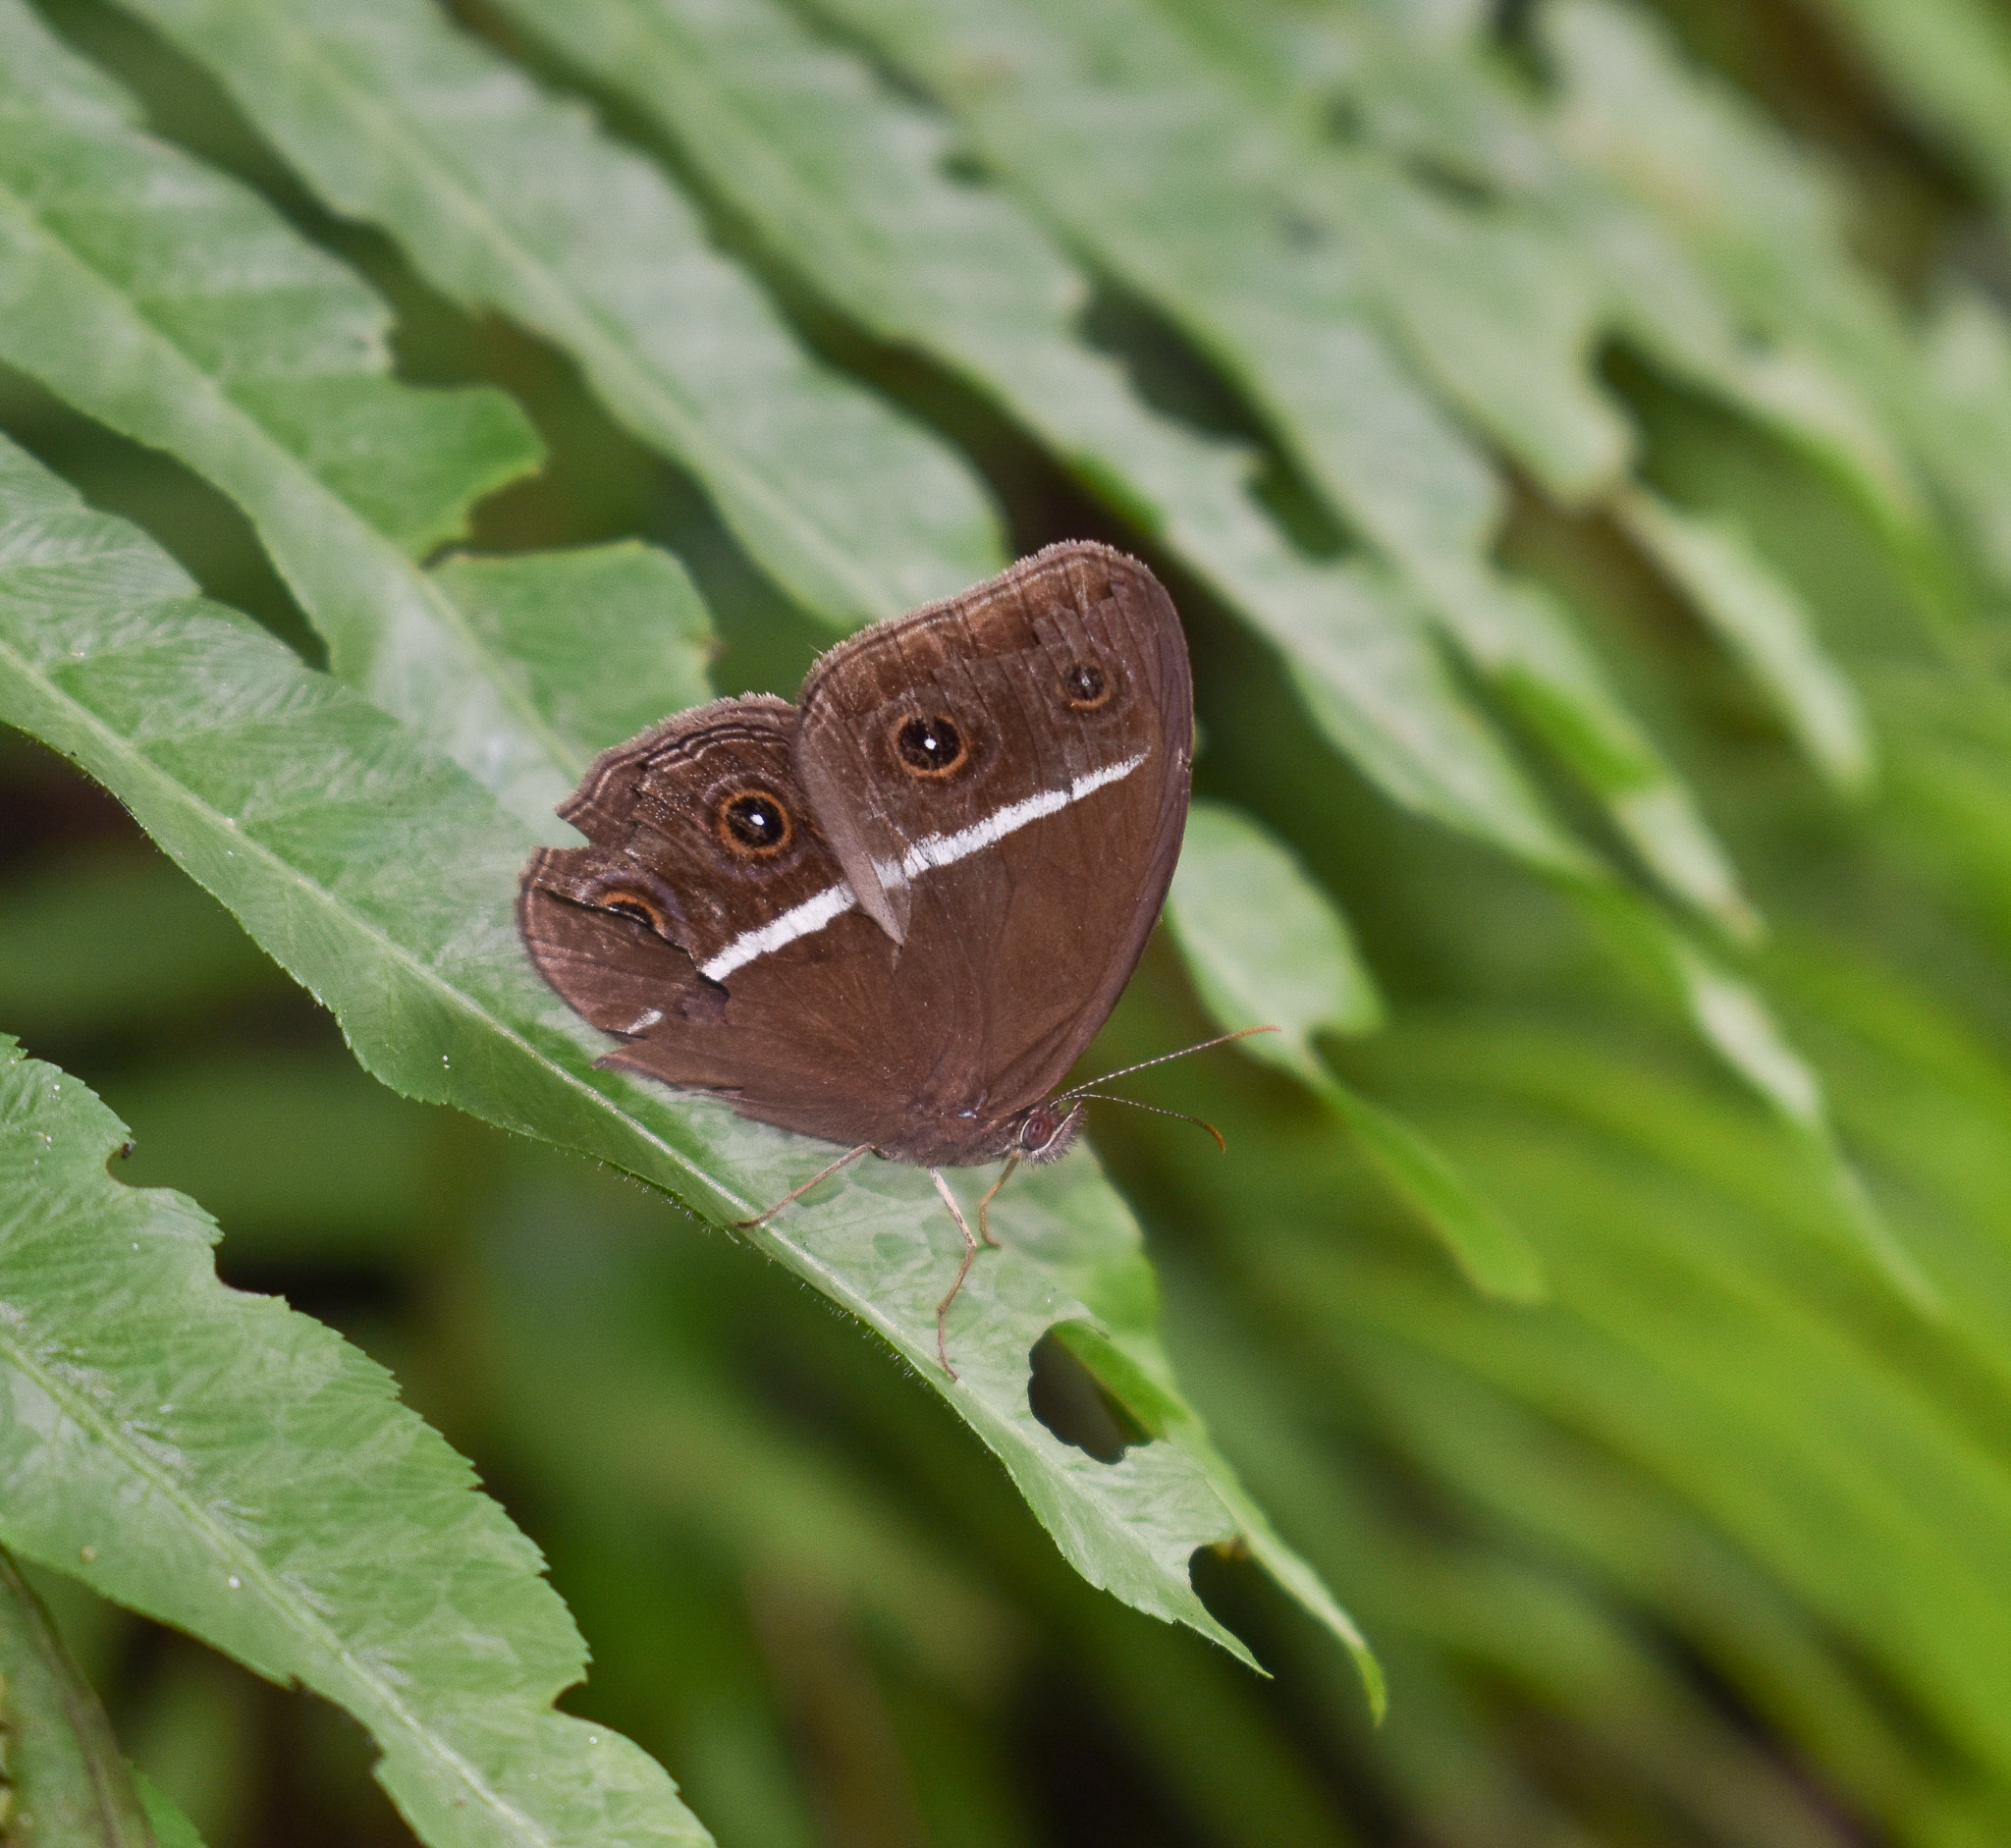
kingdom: Animalia
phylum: Arthropoda
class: Insecta
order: Lepidoptera
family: Nymphalidae
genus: Orsotriaena
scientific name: Orsotriaena medus
